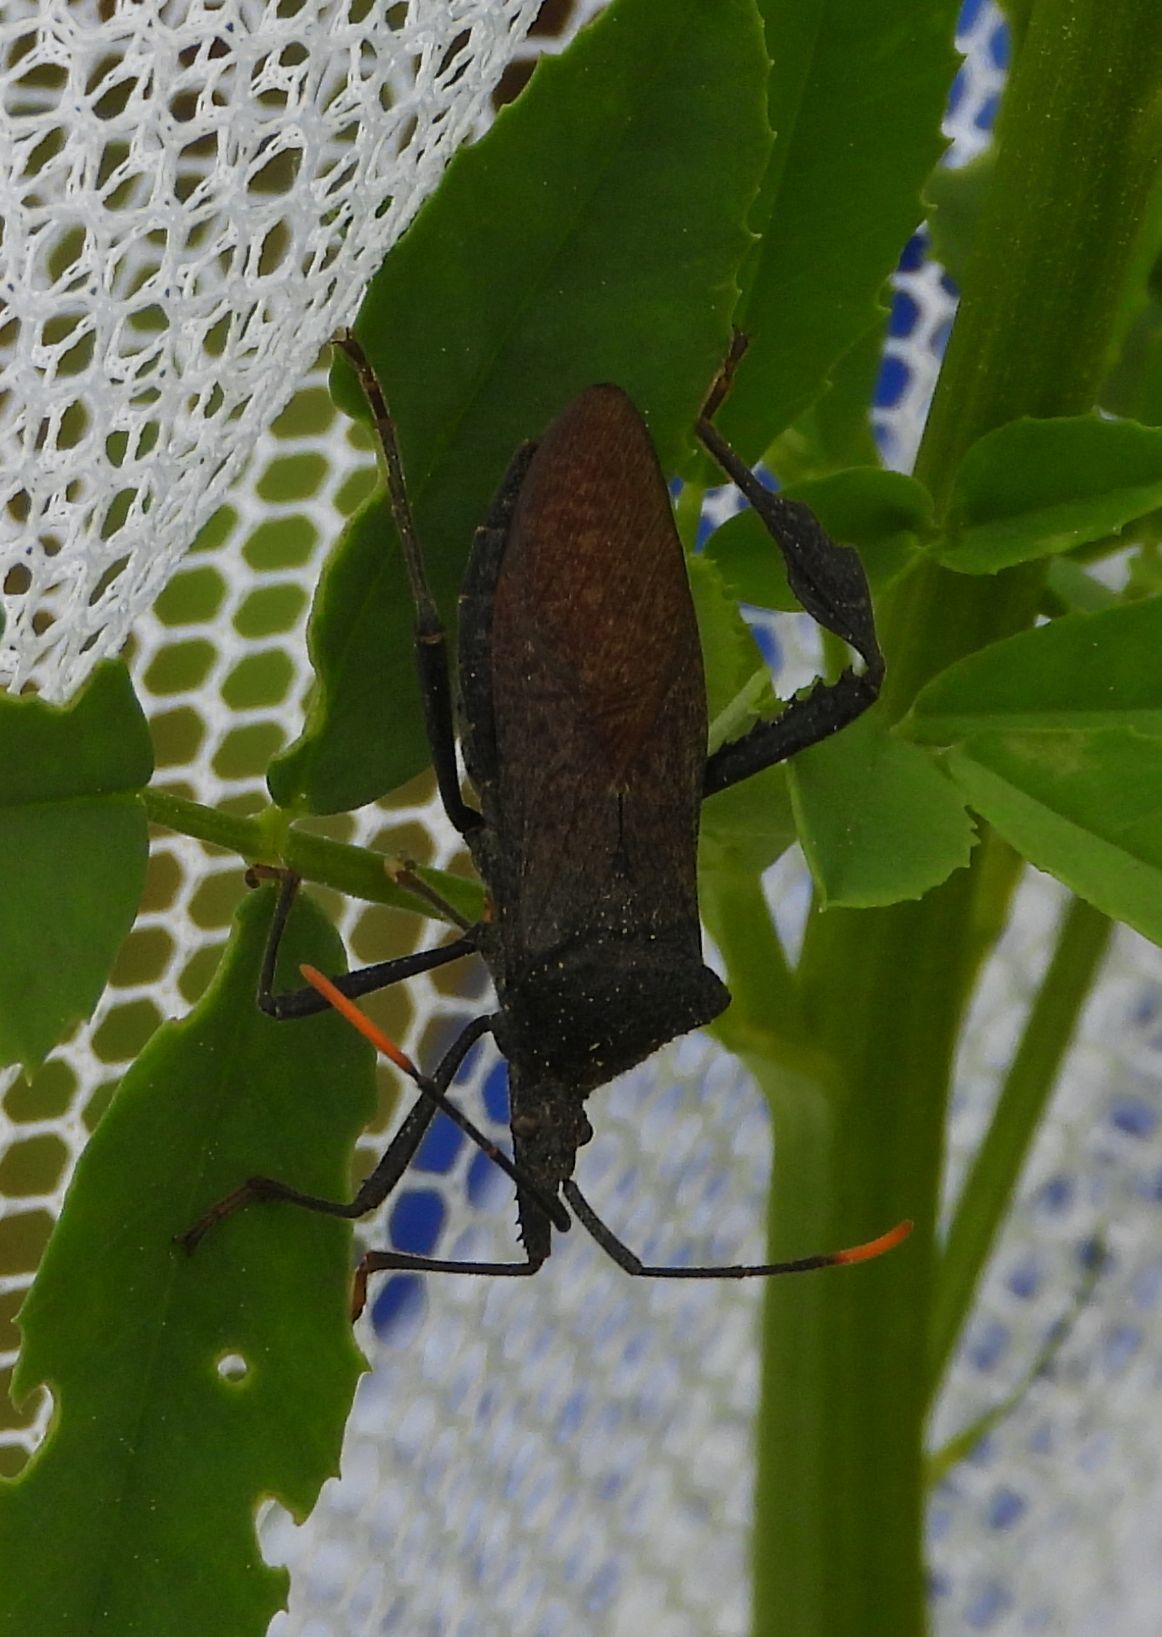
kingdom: Animalia
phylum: Arthropoda
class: Insecta
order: Hemiptera
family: Coreidae
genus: Acanthocephala
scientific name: Acanthocephala terminalis
